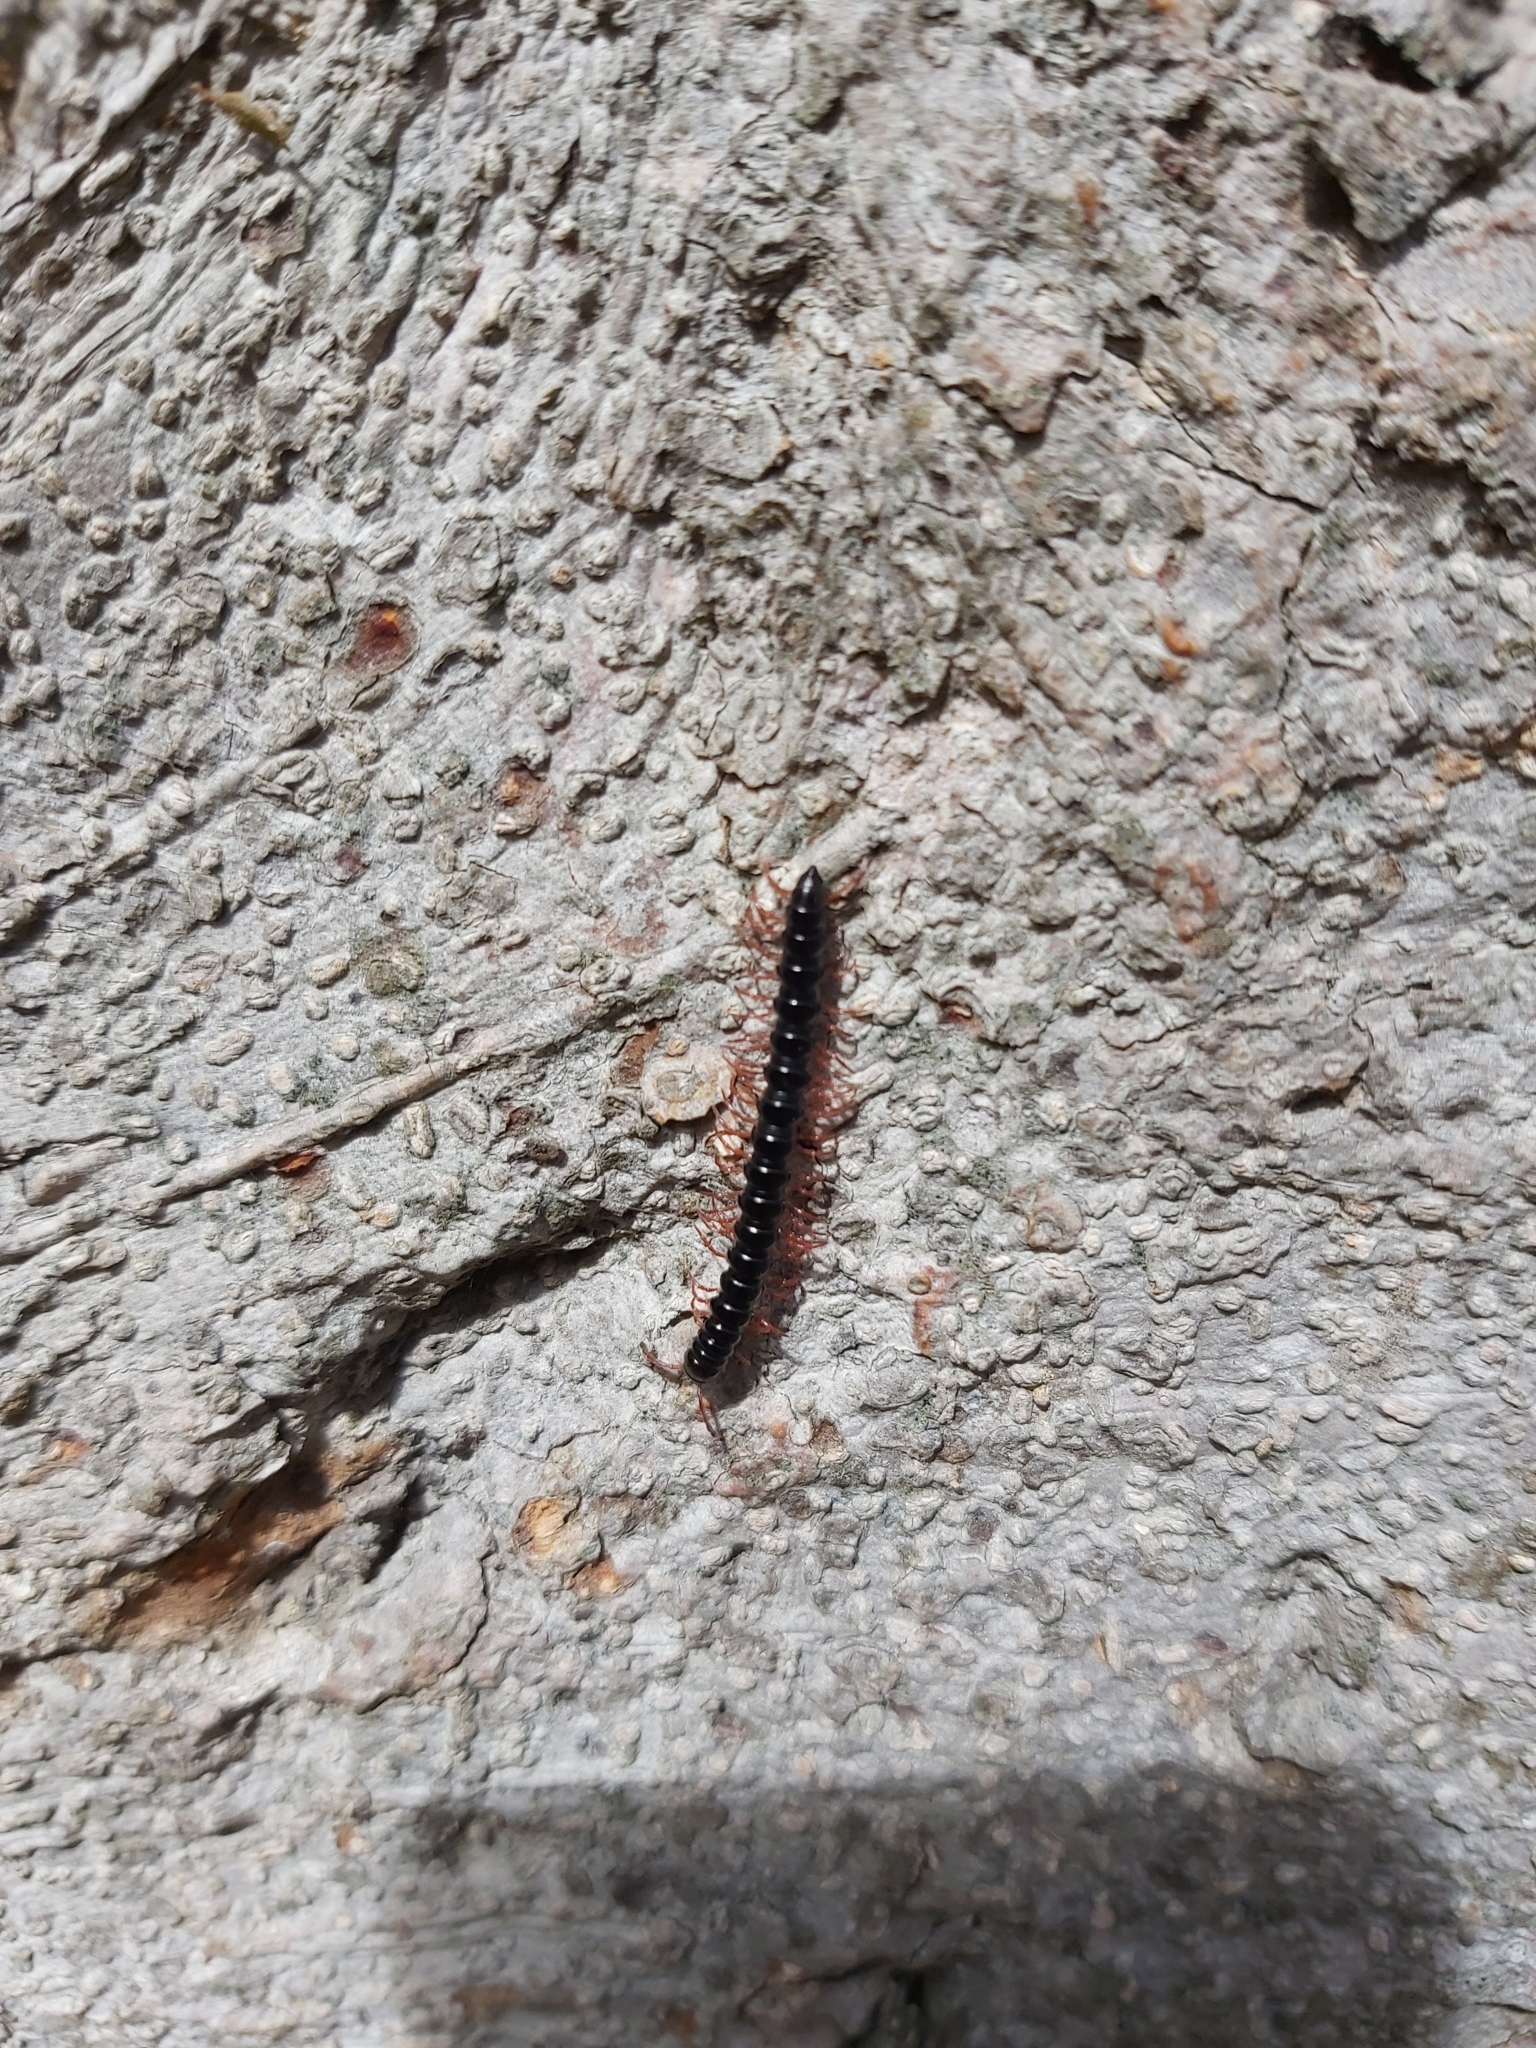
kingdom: Animalia
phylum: Arthropoda
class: Diplopoda
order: Polydesmida
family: Paradoxosomatidae
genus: Heterocladosoma
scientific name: Heterocladosoma
